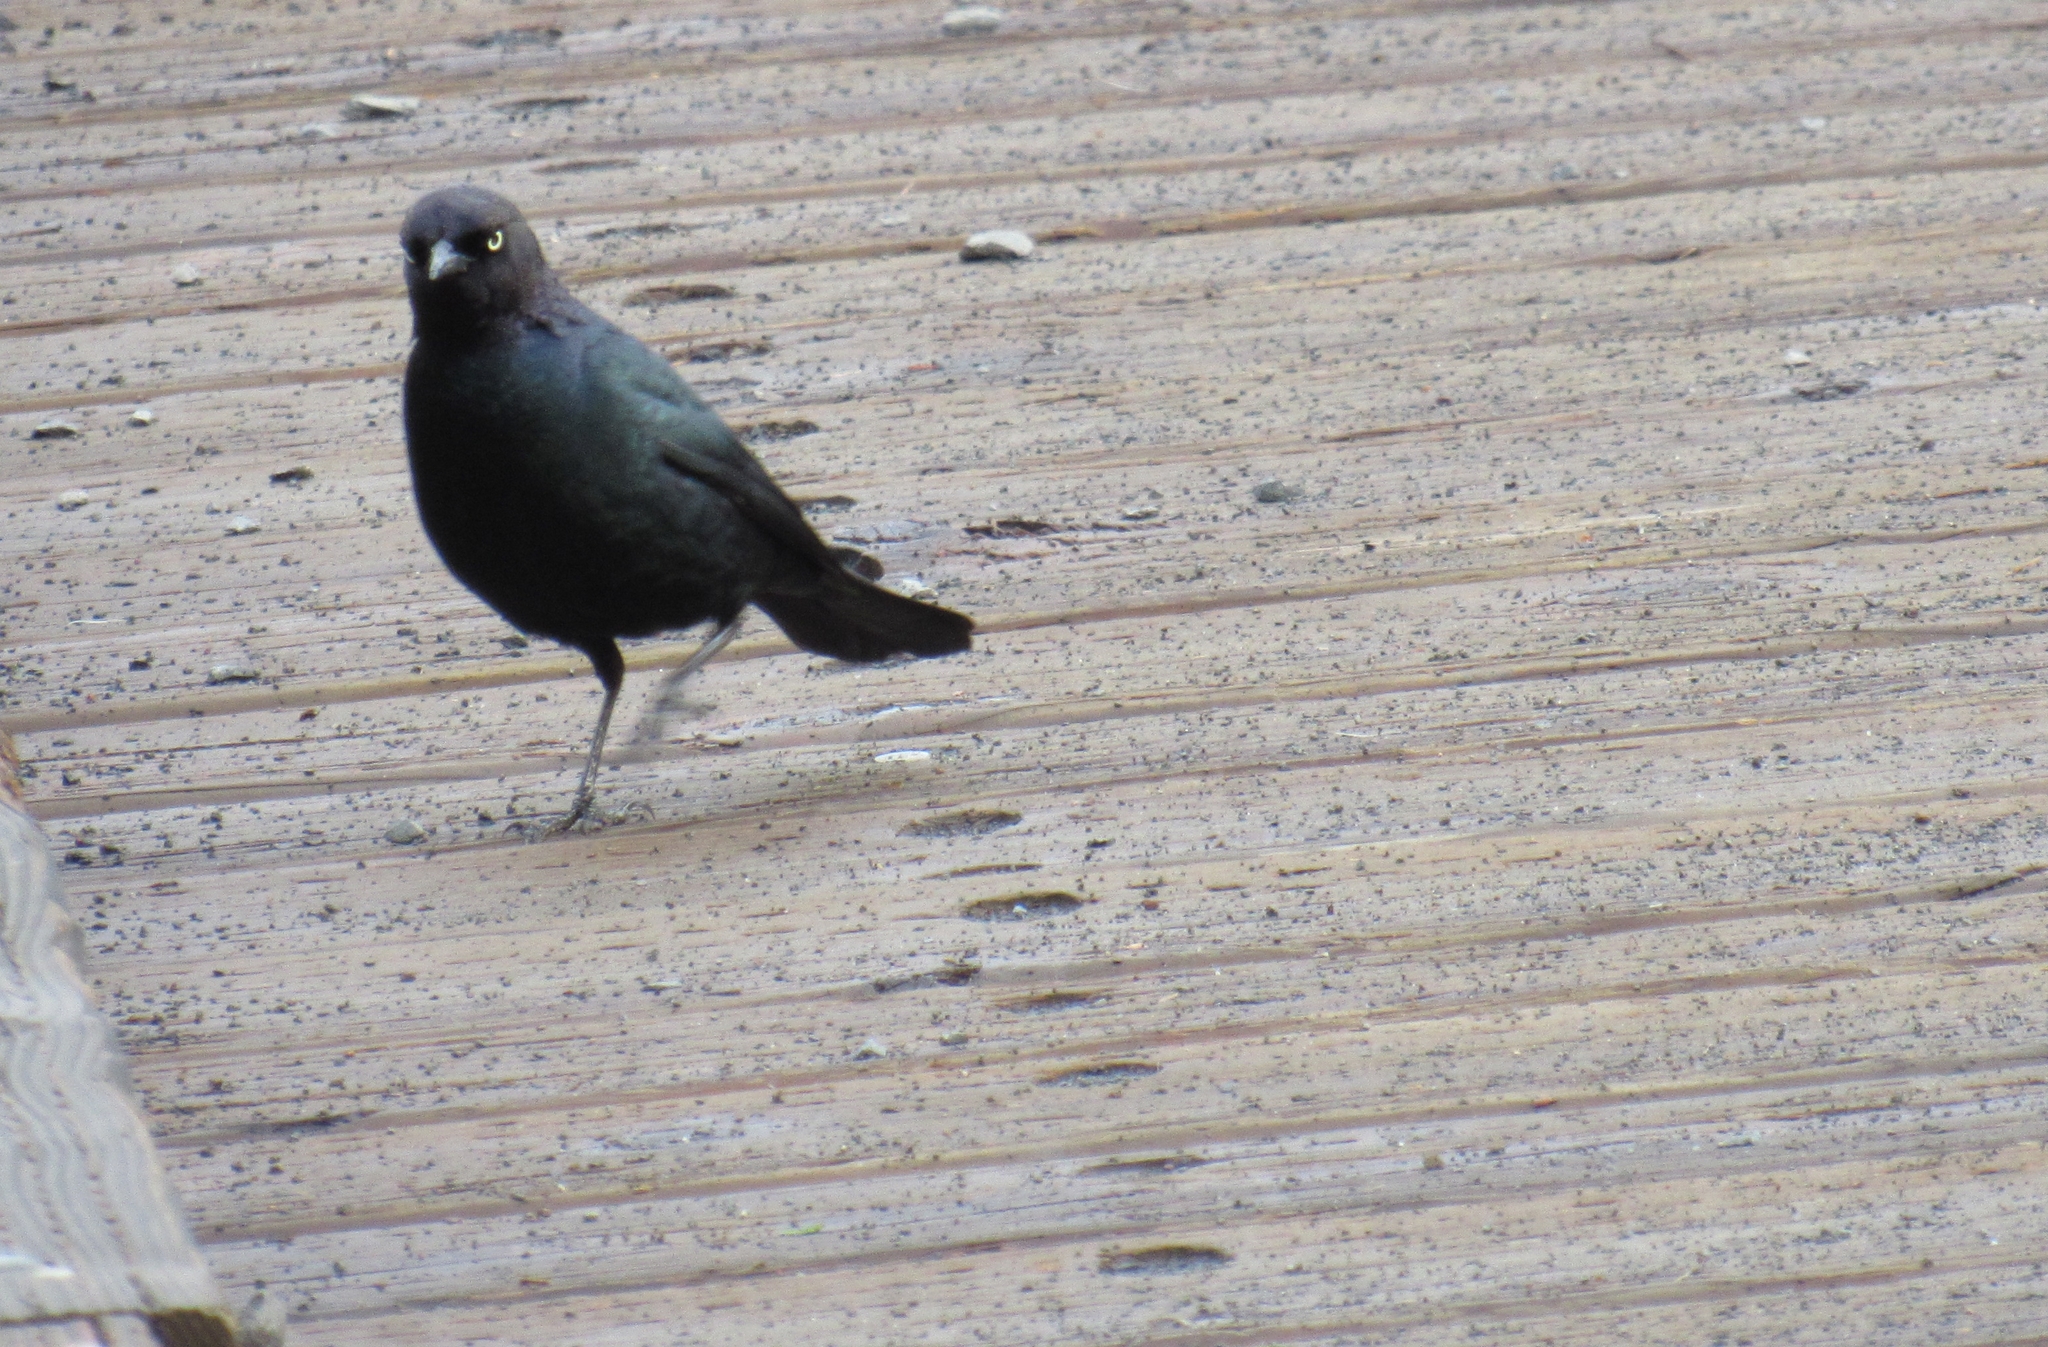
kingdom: Animalia
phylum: Chordata
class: Aves
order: Passeriformes
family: Icteridae
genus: Euphagus
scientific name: Euphagus cyanocephalus
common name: Brewer's blackbird
